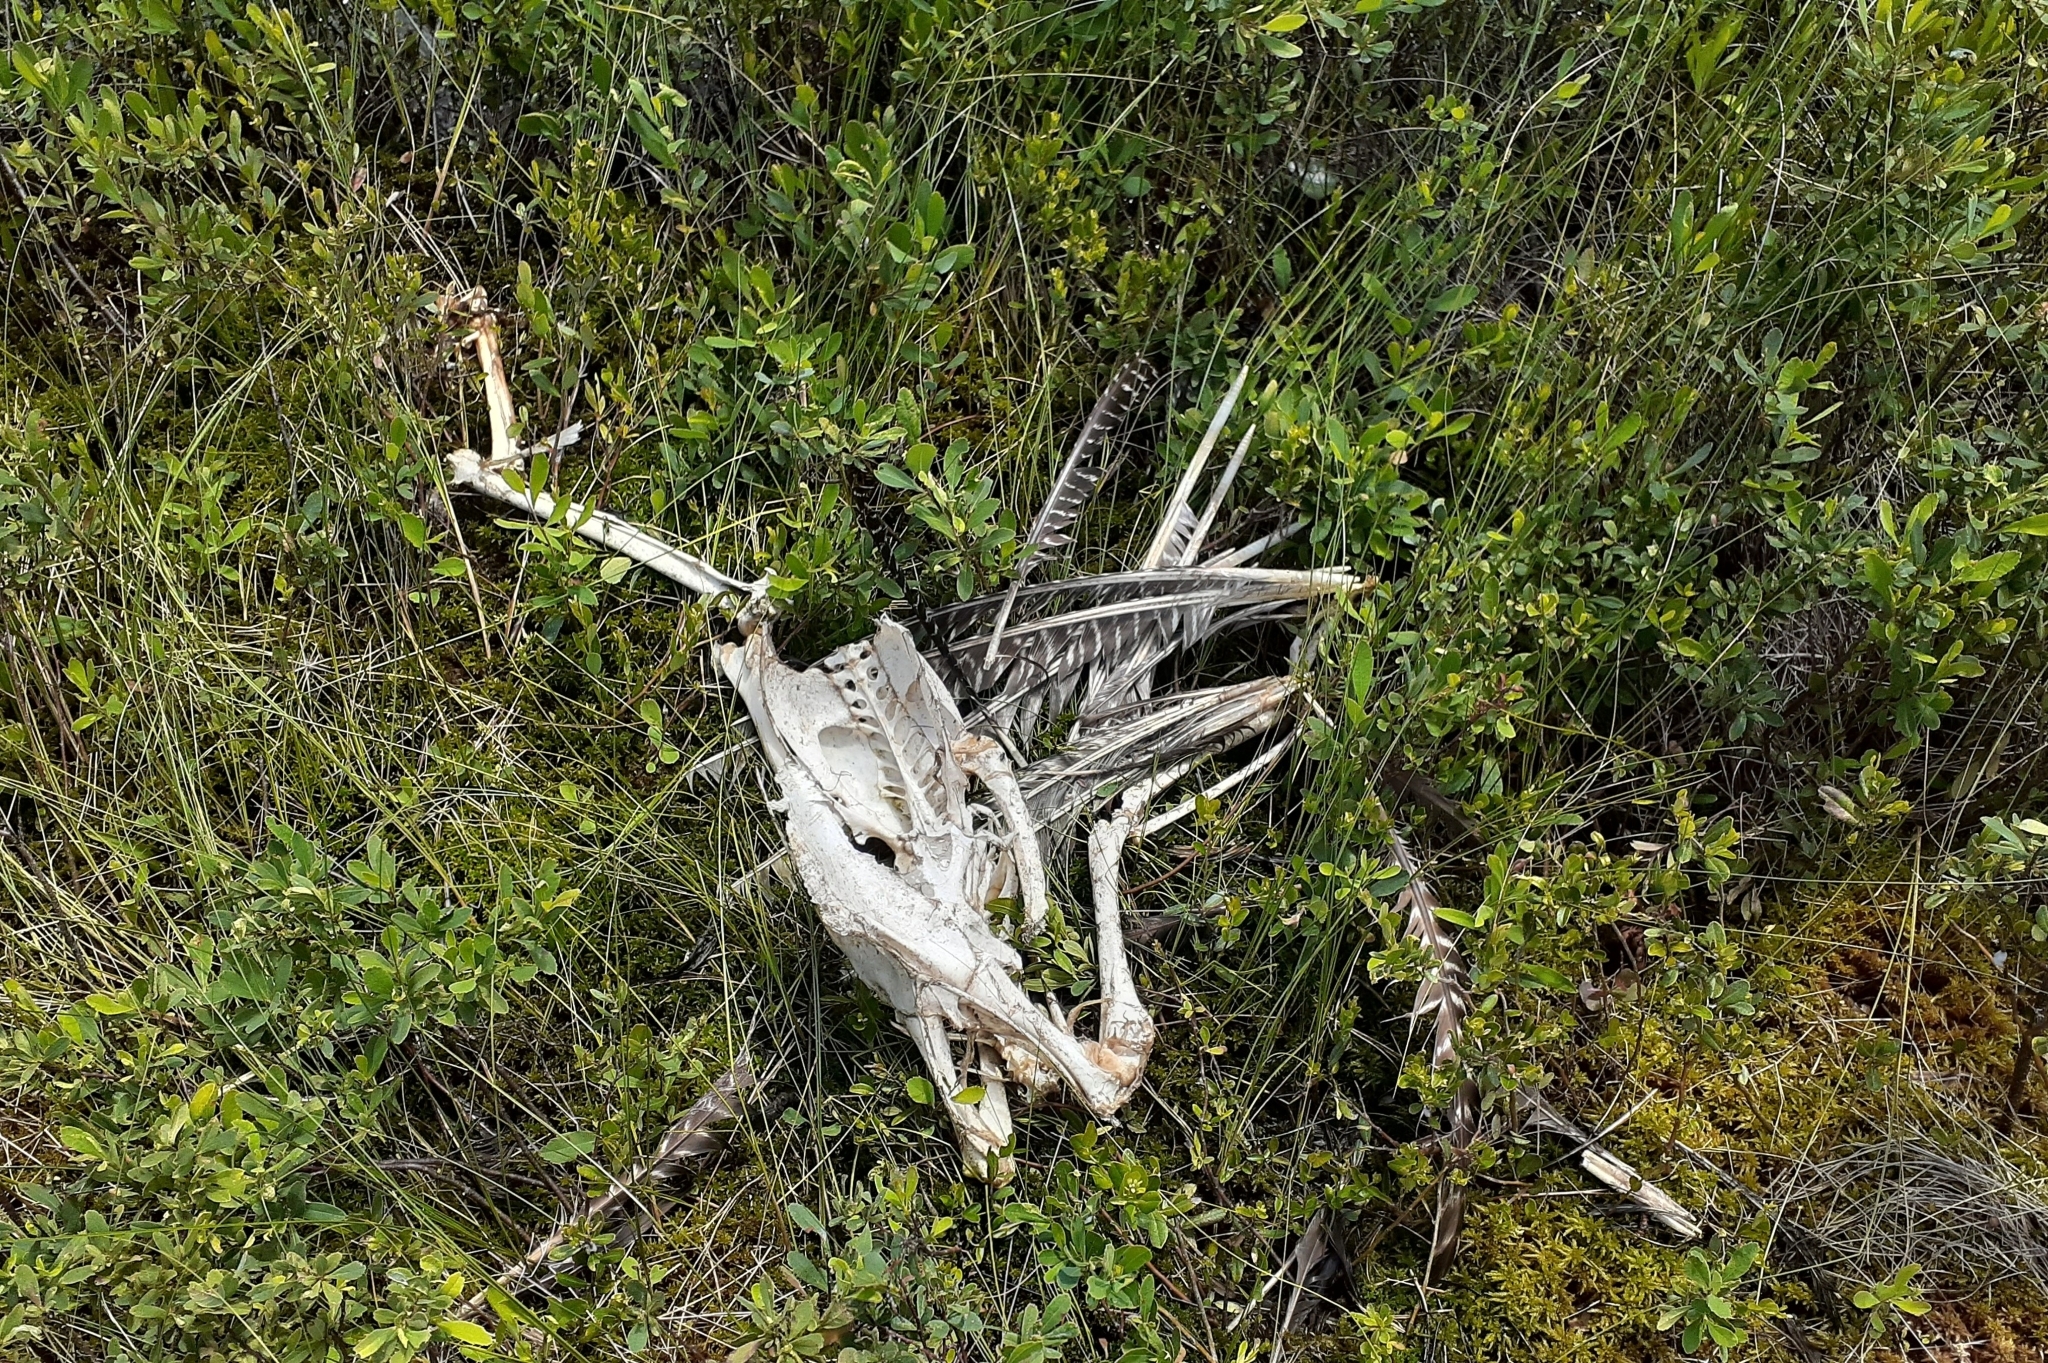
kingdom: Animalia
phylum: Chordata
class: Aves
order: Galliformes
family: Phasianidae
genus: Meleagris
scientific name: Meleagris gallopavo
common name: Wild turkey
